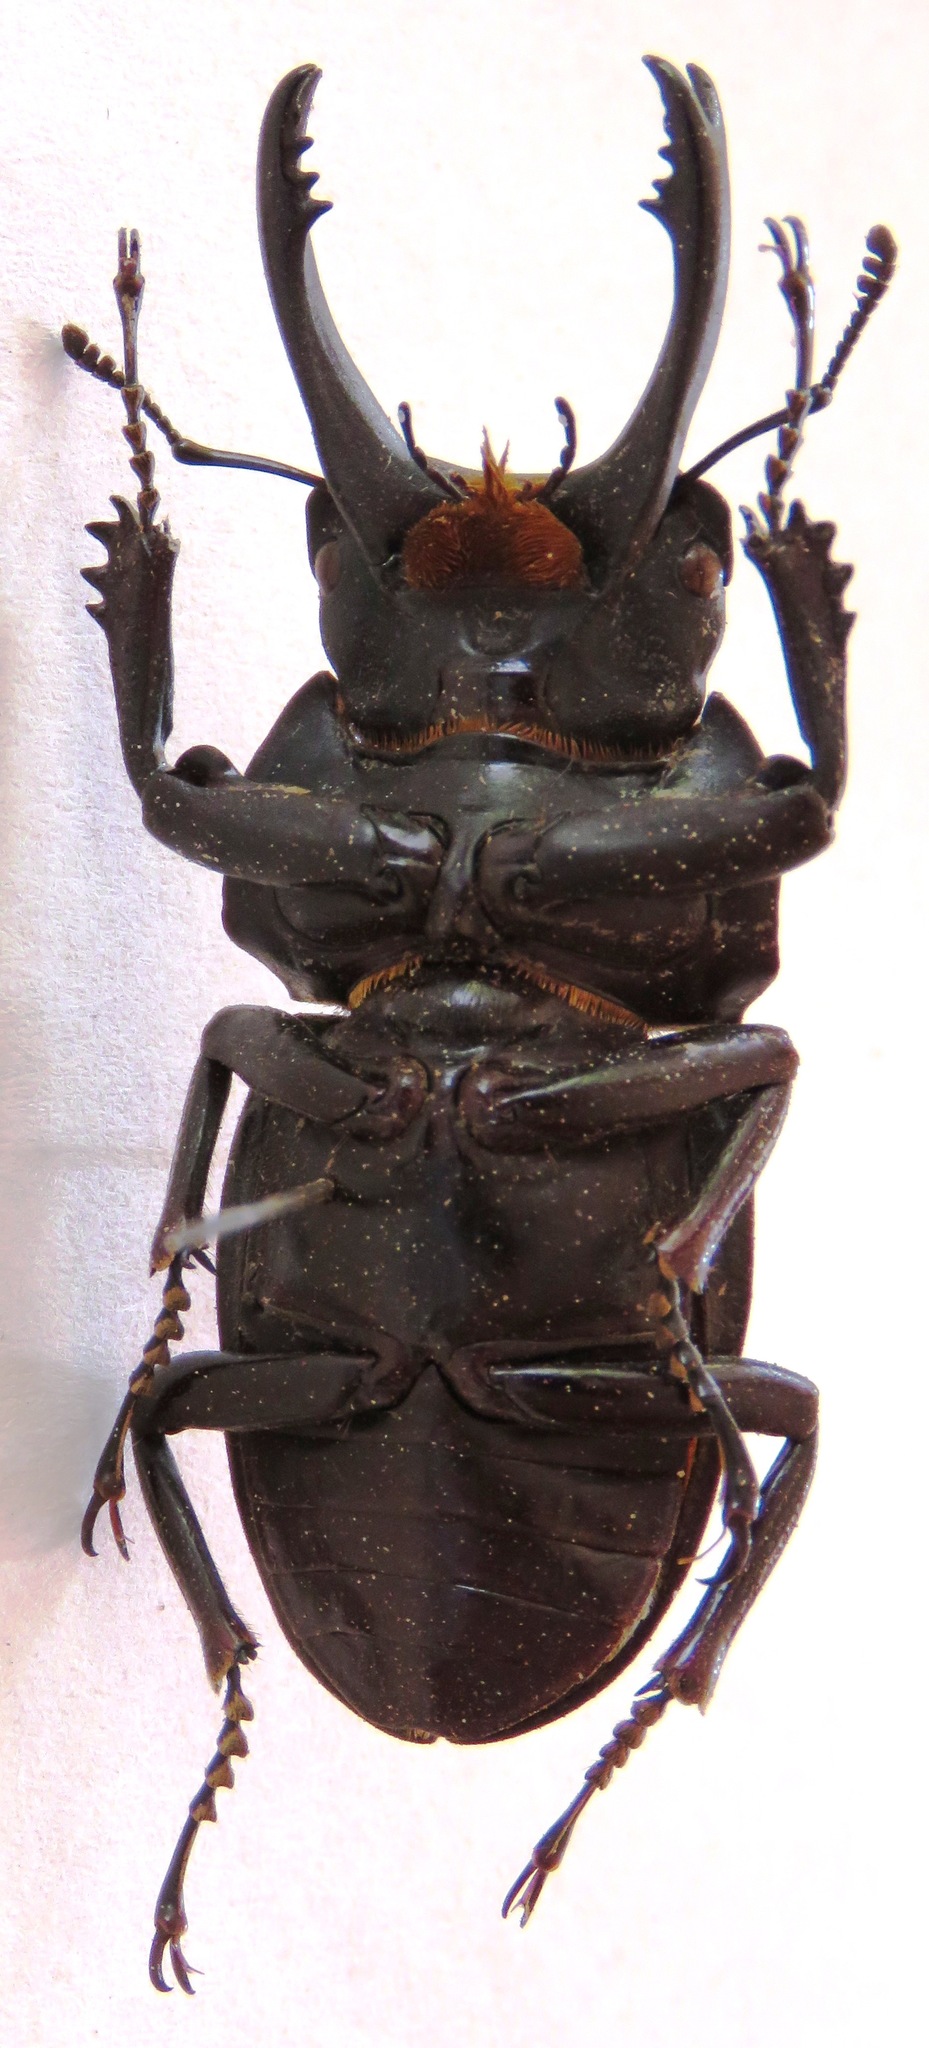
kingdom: Animalia
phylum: Arthropoda
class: Insecta
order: Coleoptera
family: Lucanidae
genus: Neolucanus
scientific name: Neolucanus fuscus
